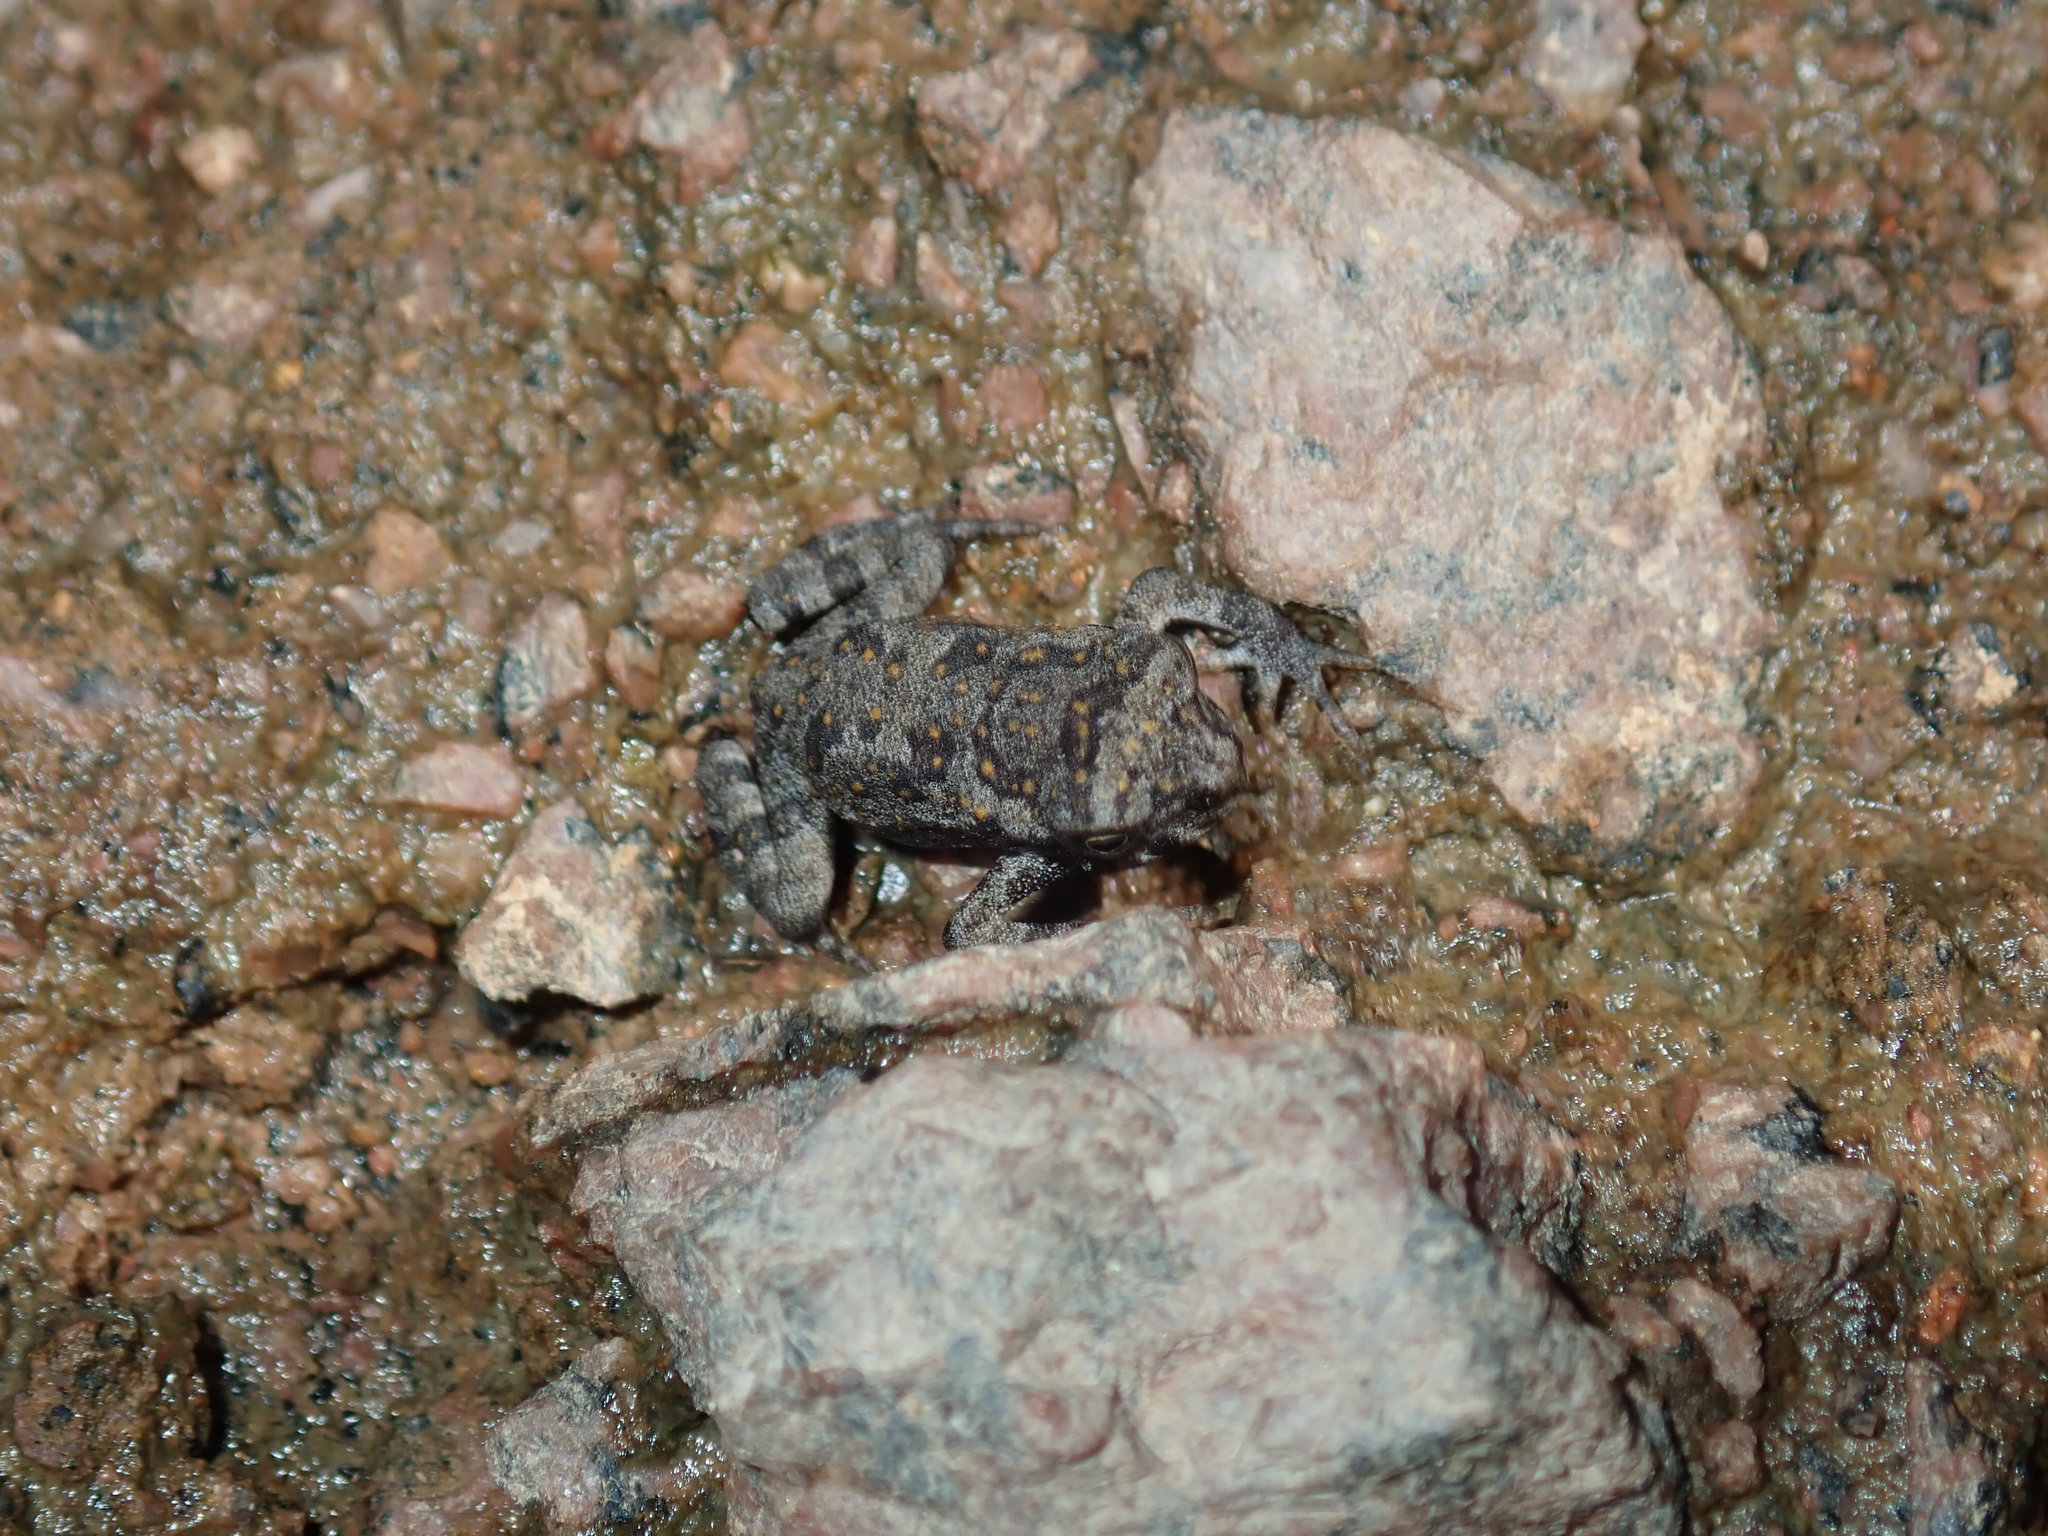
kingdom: Animalia
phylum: Chordata
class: Amphibia
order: Anura
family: Bufonidae
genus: Rhinella
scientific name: Rhinella marina
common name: Cane toad
